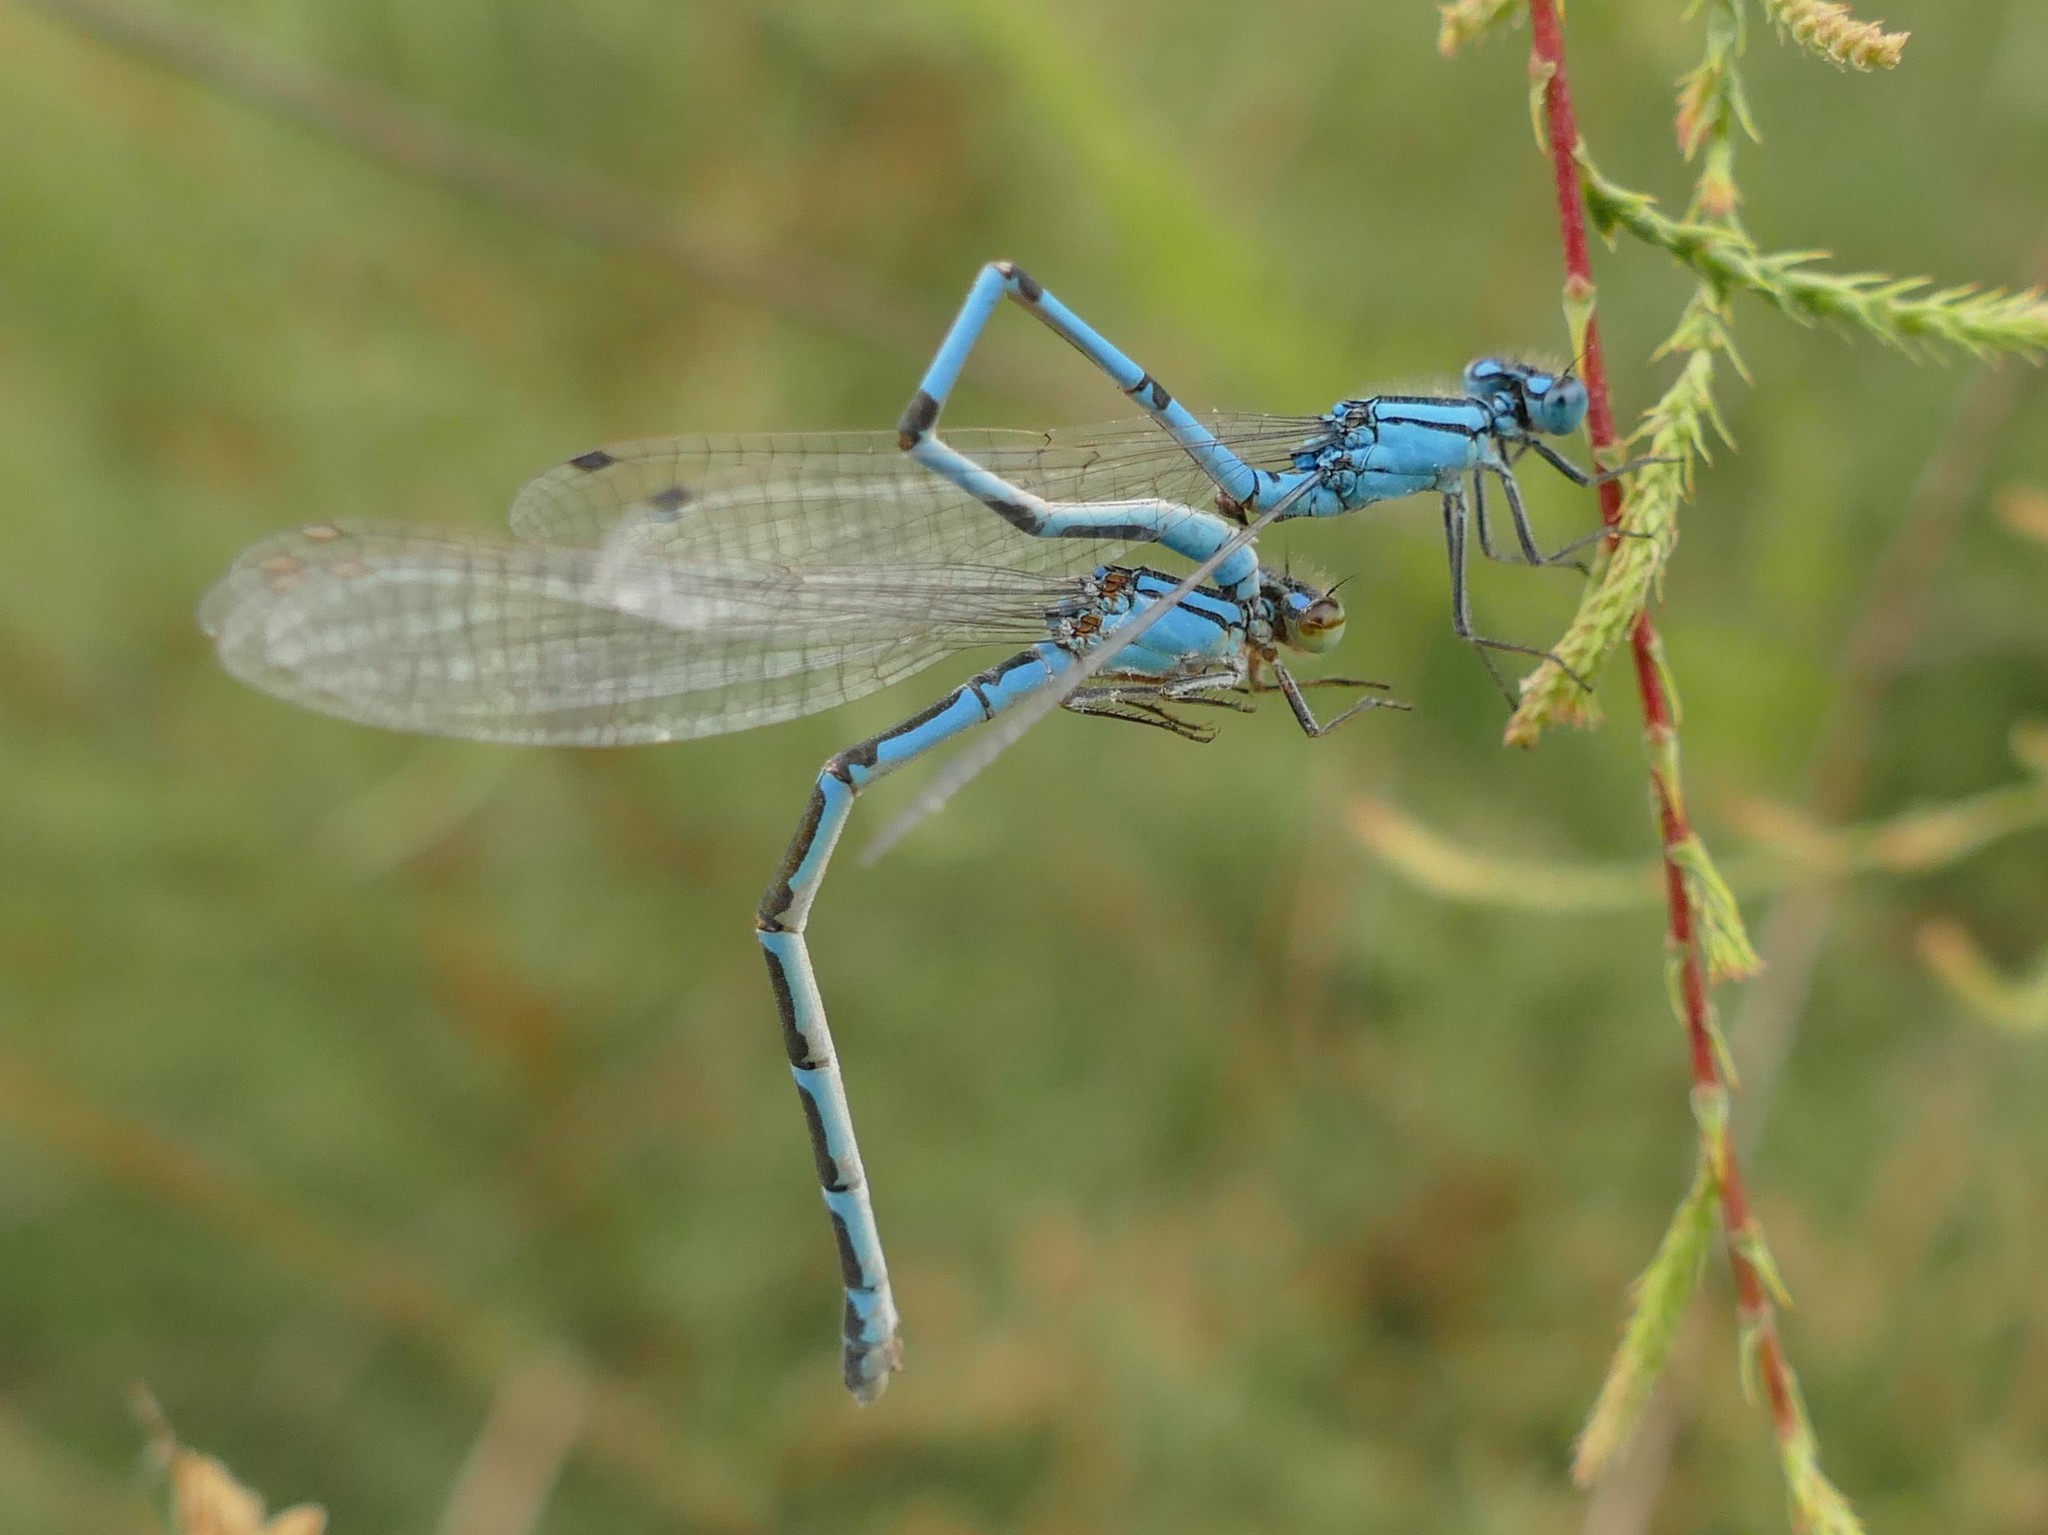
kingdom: Animalia
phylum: Arthropoda
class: Insecta
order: Odonata
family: Coenagrionidae
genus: Enallagma
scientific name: Enallagma cyathigerum
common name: Common blue damselfly
